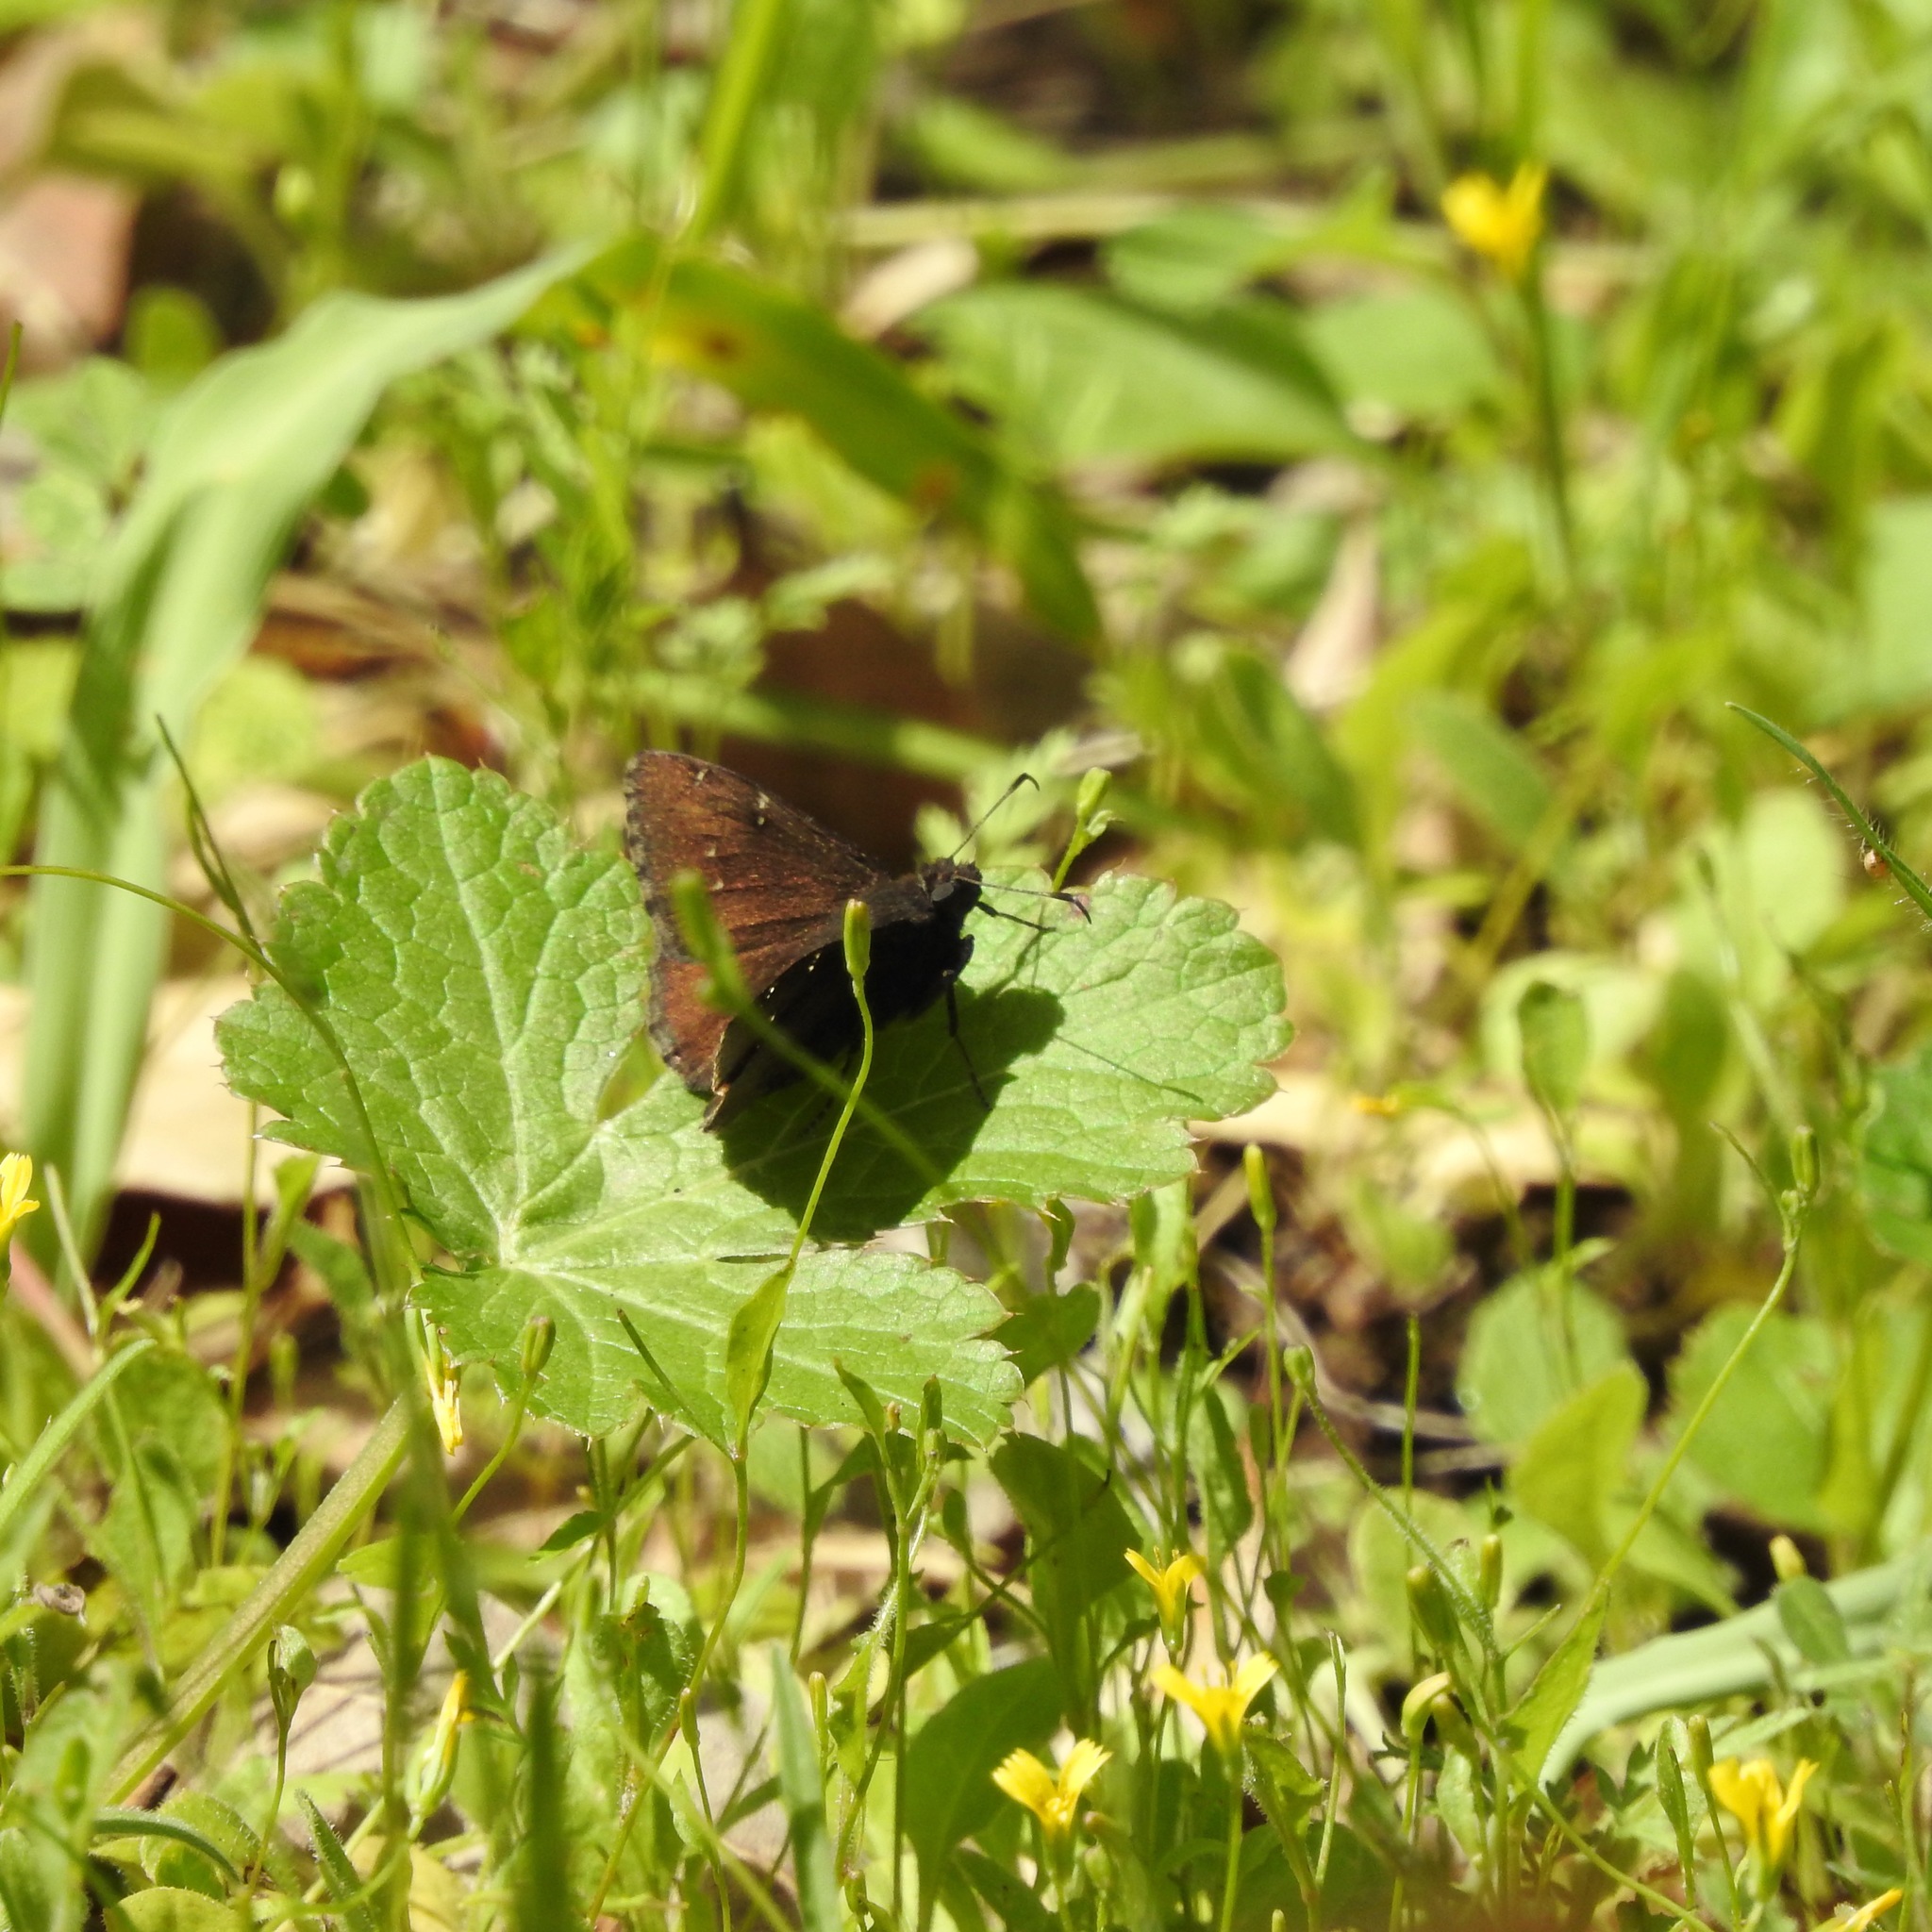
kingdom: Plantae
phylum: Tracheophyta
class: Magnoliopsida
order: Apiales
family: Apiaceae
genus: Sanicula
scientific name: Sanicula crassicaulis
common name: Western snakeroot
